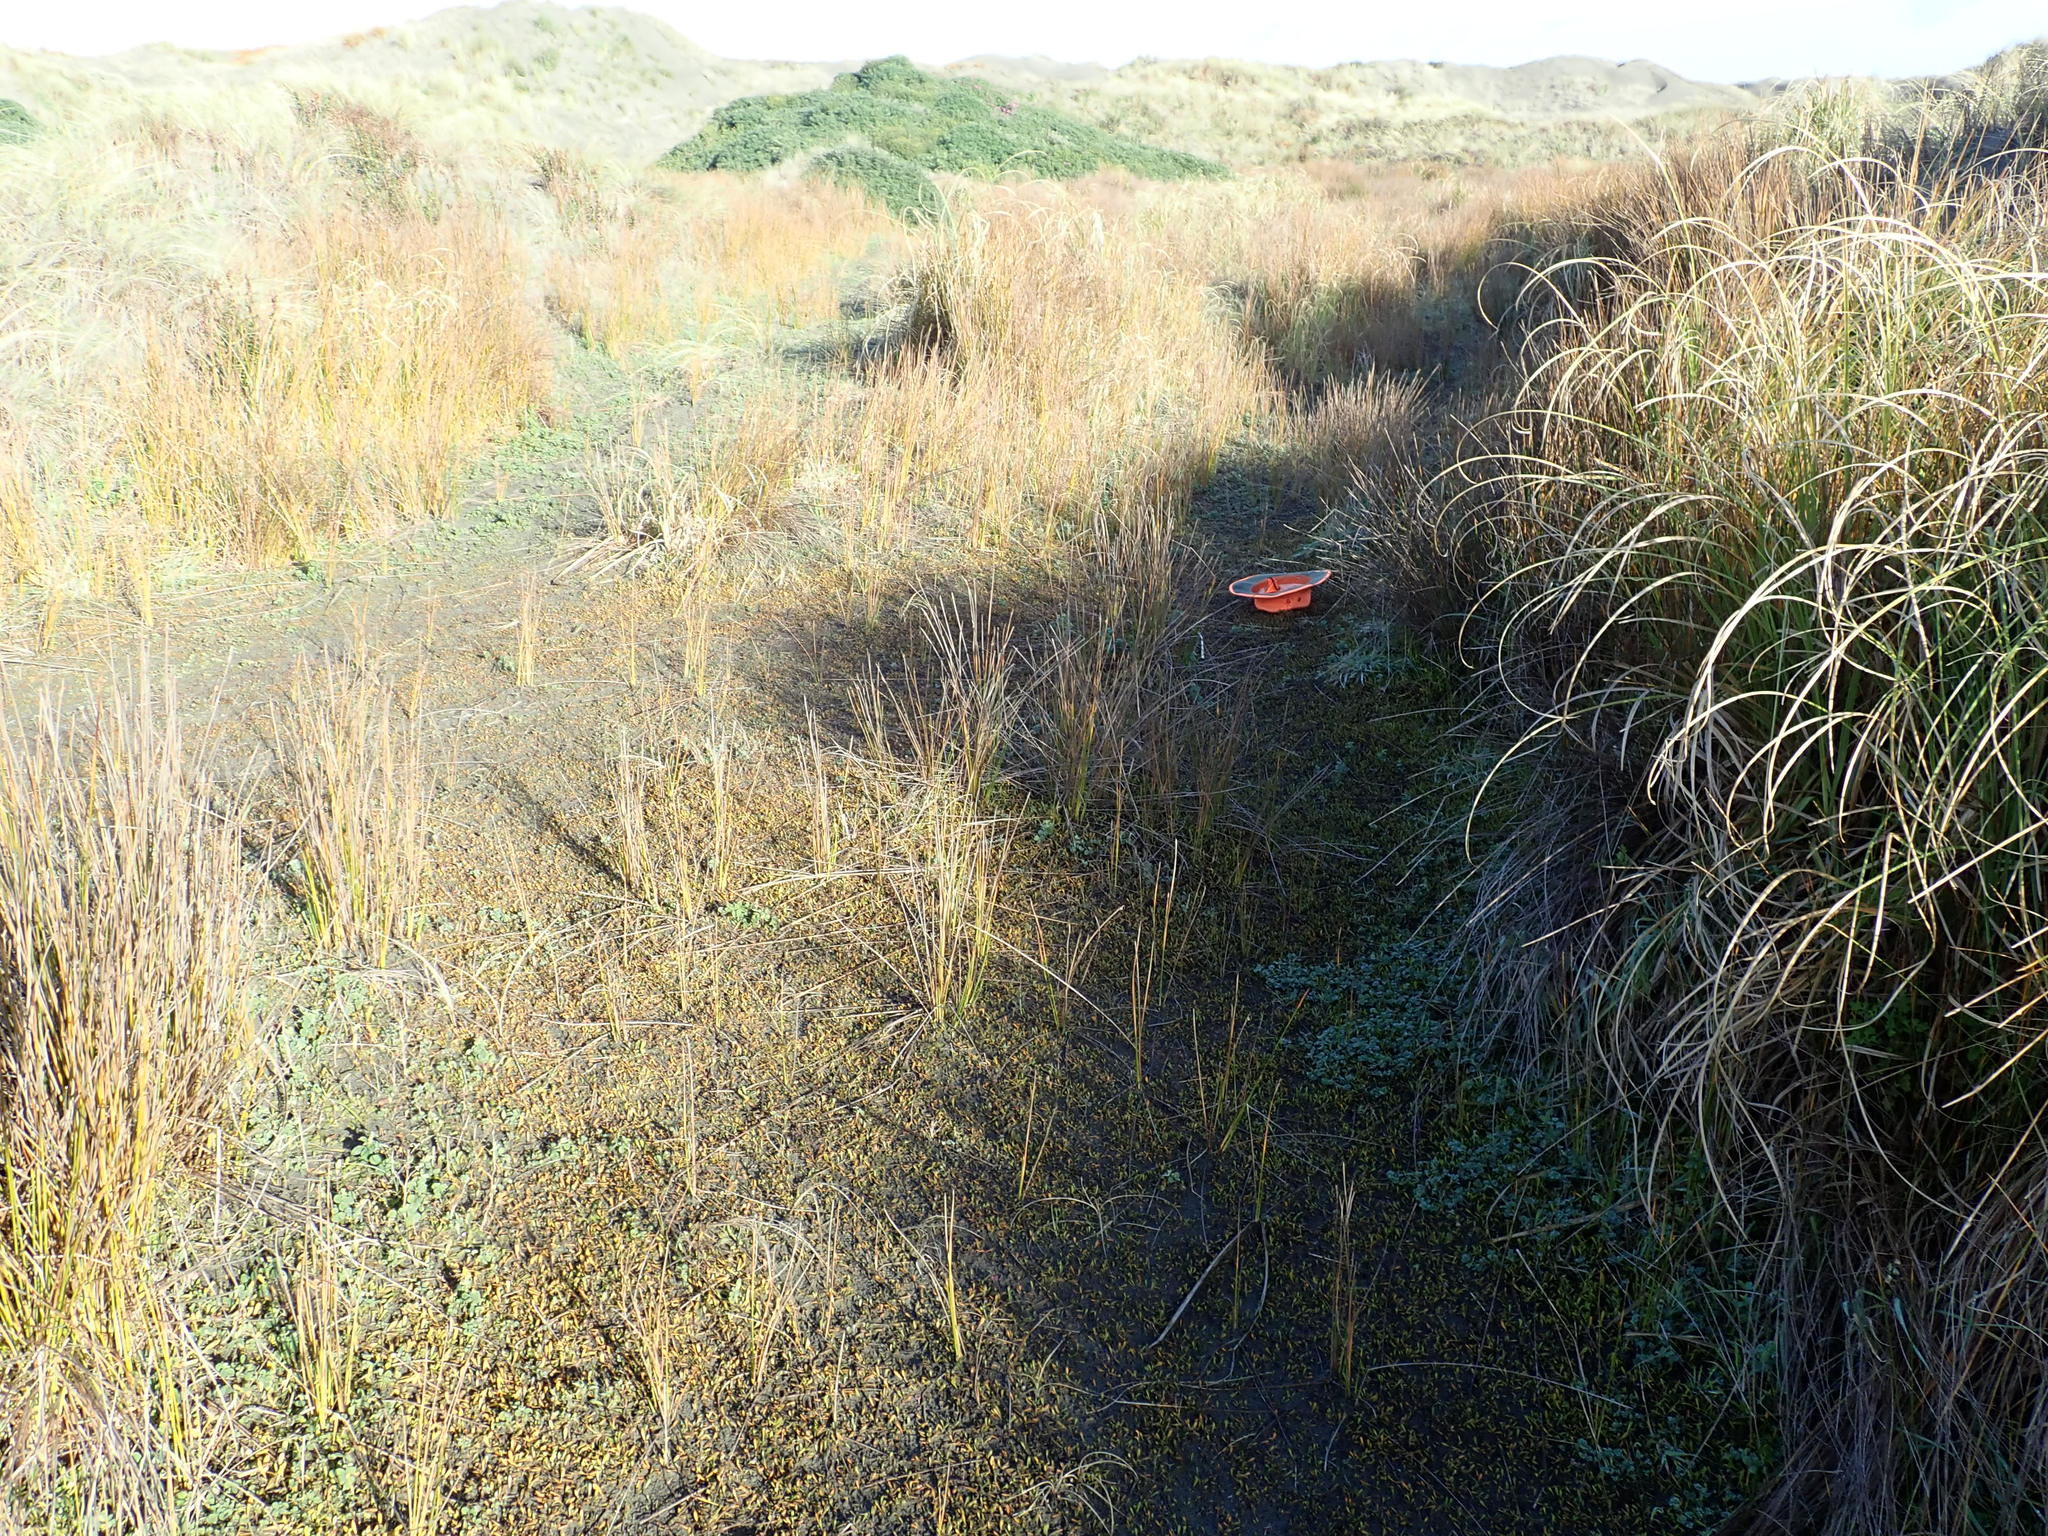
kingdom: Plantae
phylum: Tracheophyta
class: Magnoliopsida
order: Asterales
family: Goodeniaceae
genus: Goodenia
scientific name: Goodenia radicans
